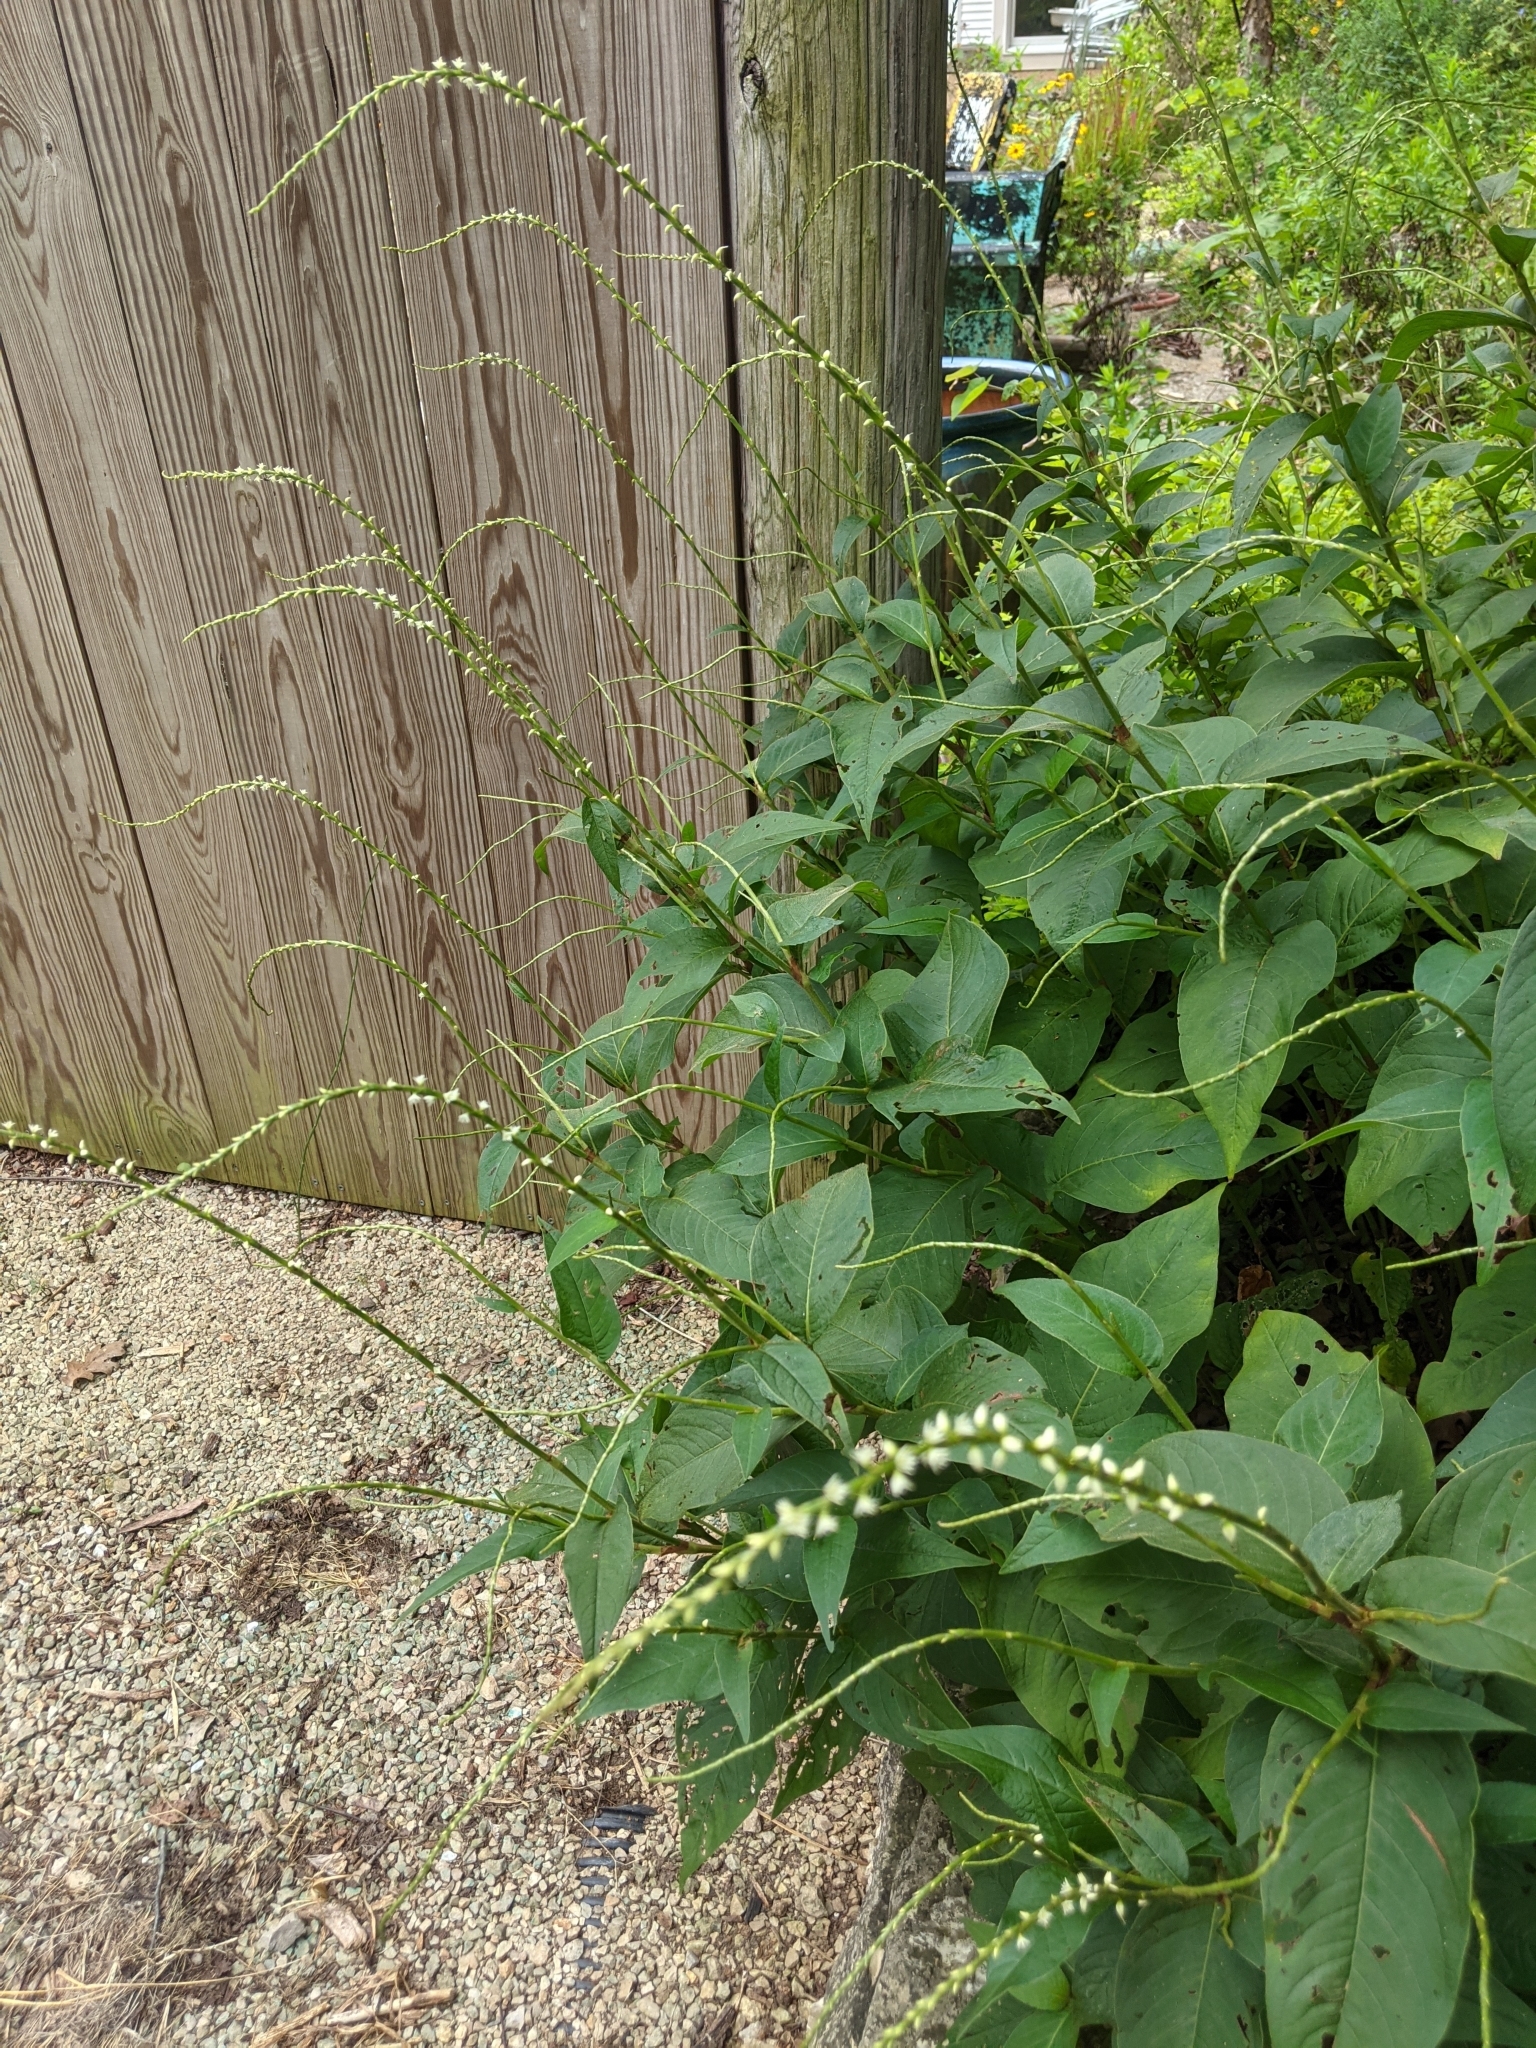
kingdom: Plantae
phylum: Tracheophyta
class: Magnoliopsida
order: Caryophyllales
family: Polygonaceae
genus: Persicaria
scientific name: Persicaria virginiana
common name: Jumpseed
